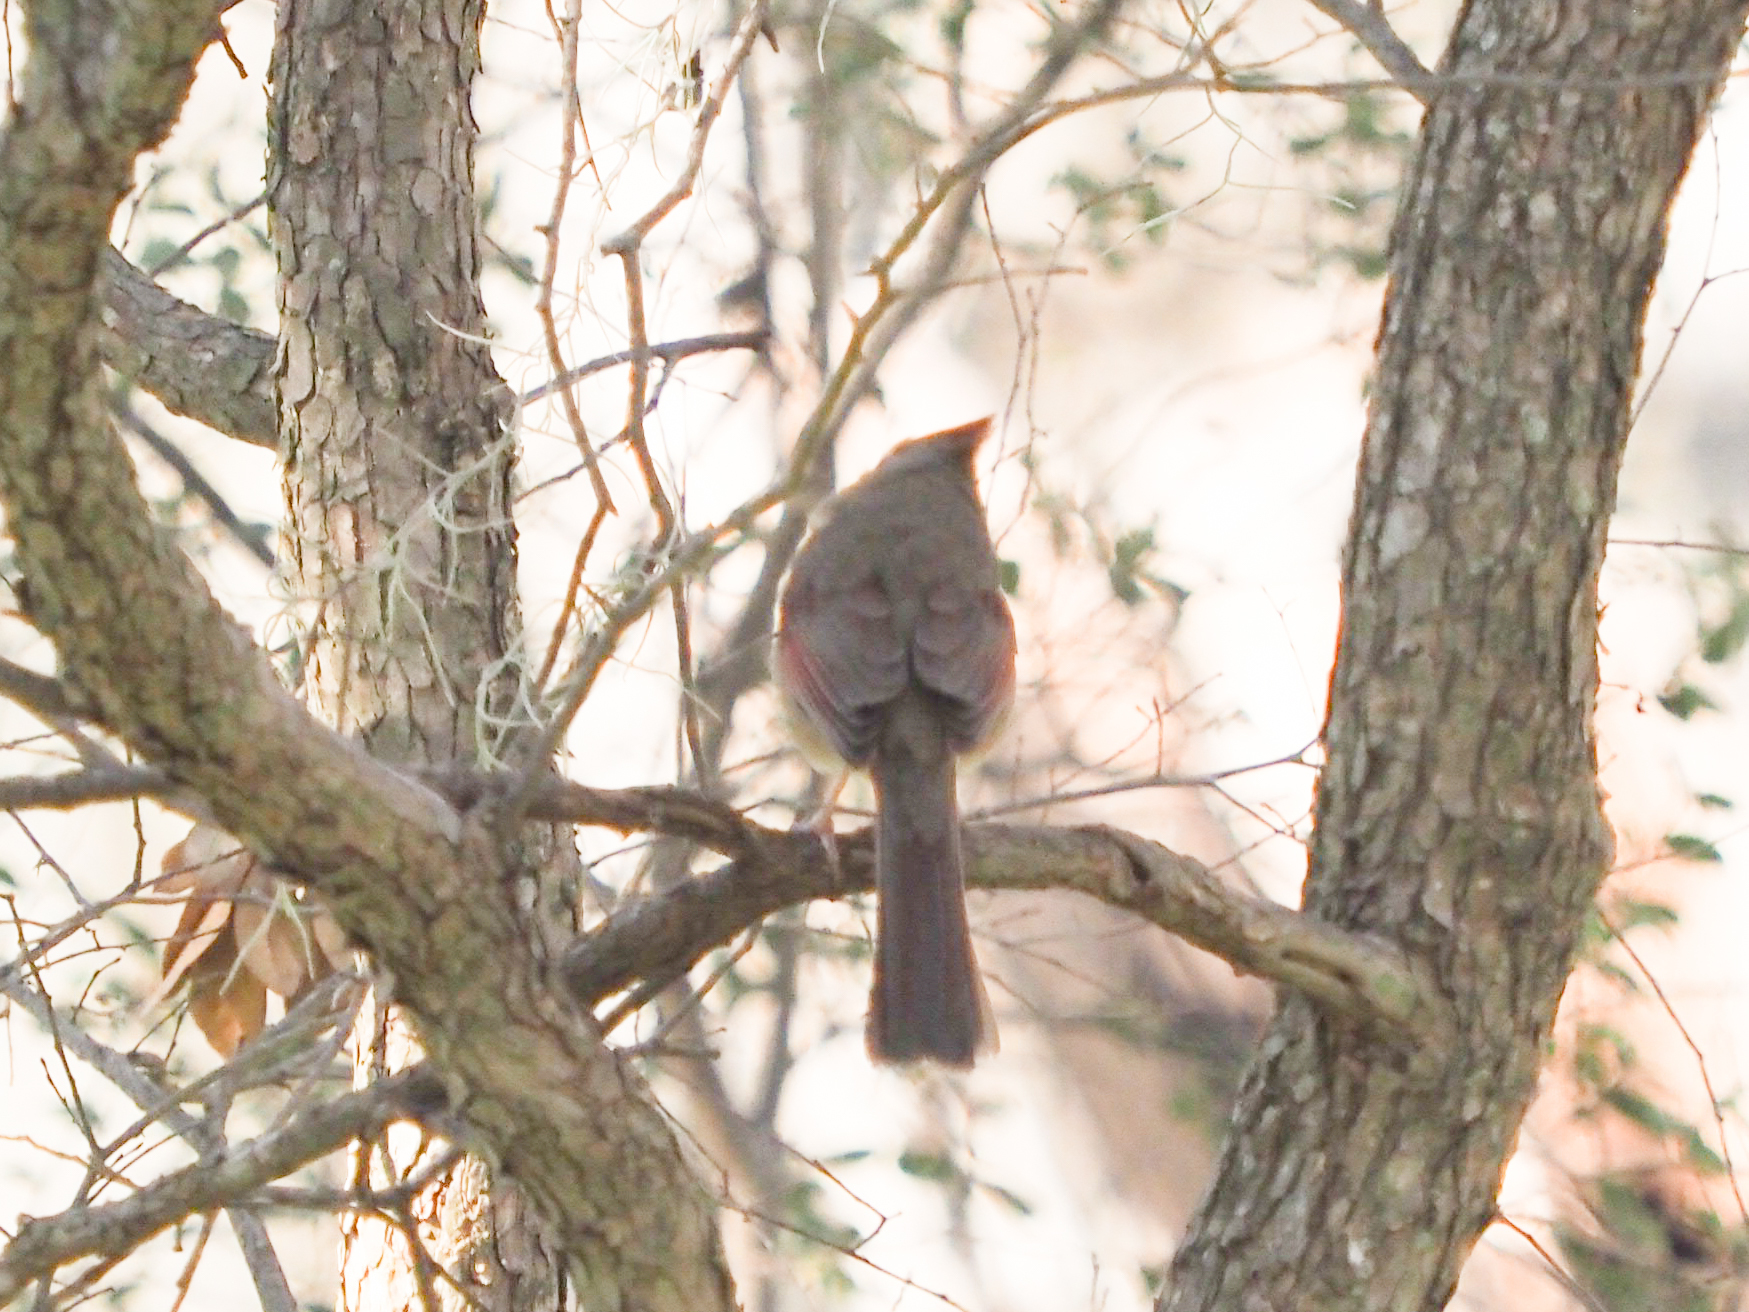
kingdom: Animalia
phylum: Chordata
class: Aves
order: Passeriformes
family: Cardinalidae
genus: Cardinalis
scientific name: Cardinalis cardinalis
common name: Northern cardinal
